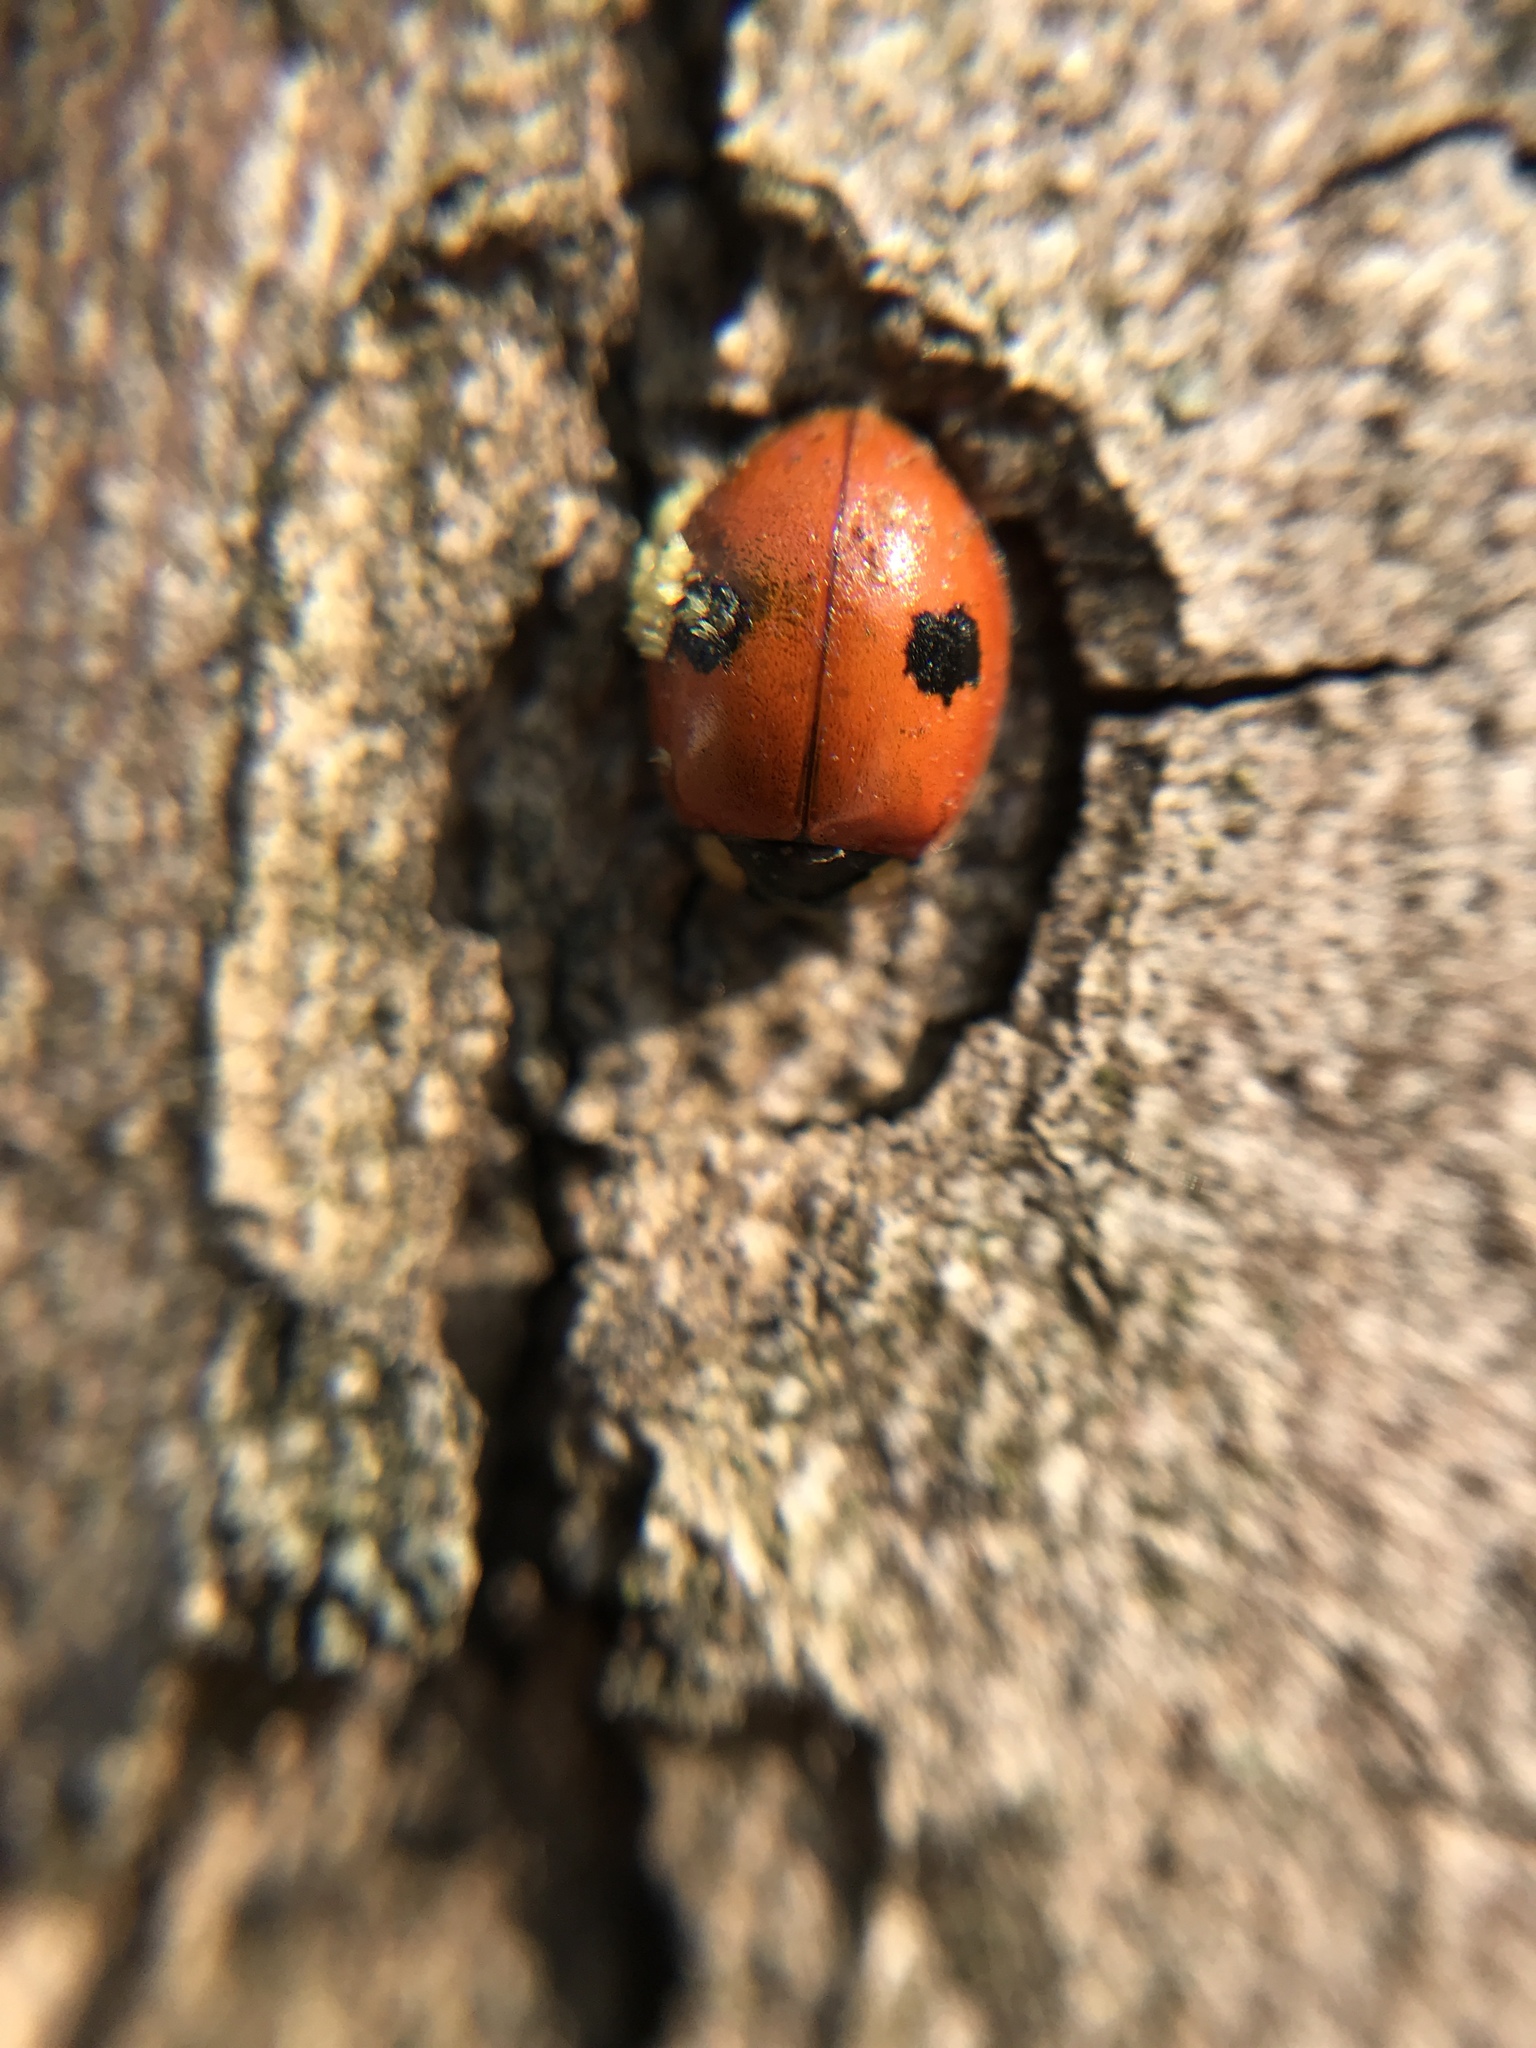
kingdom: Animalia
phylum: Arthropoda
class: Insecta
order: Coleoptera
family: Coccinellidae
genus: Adalia
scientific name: Adalia bipunctata
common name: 2-spot ladybird
